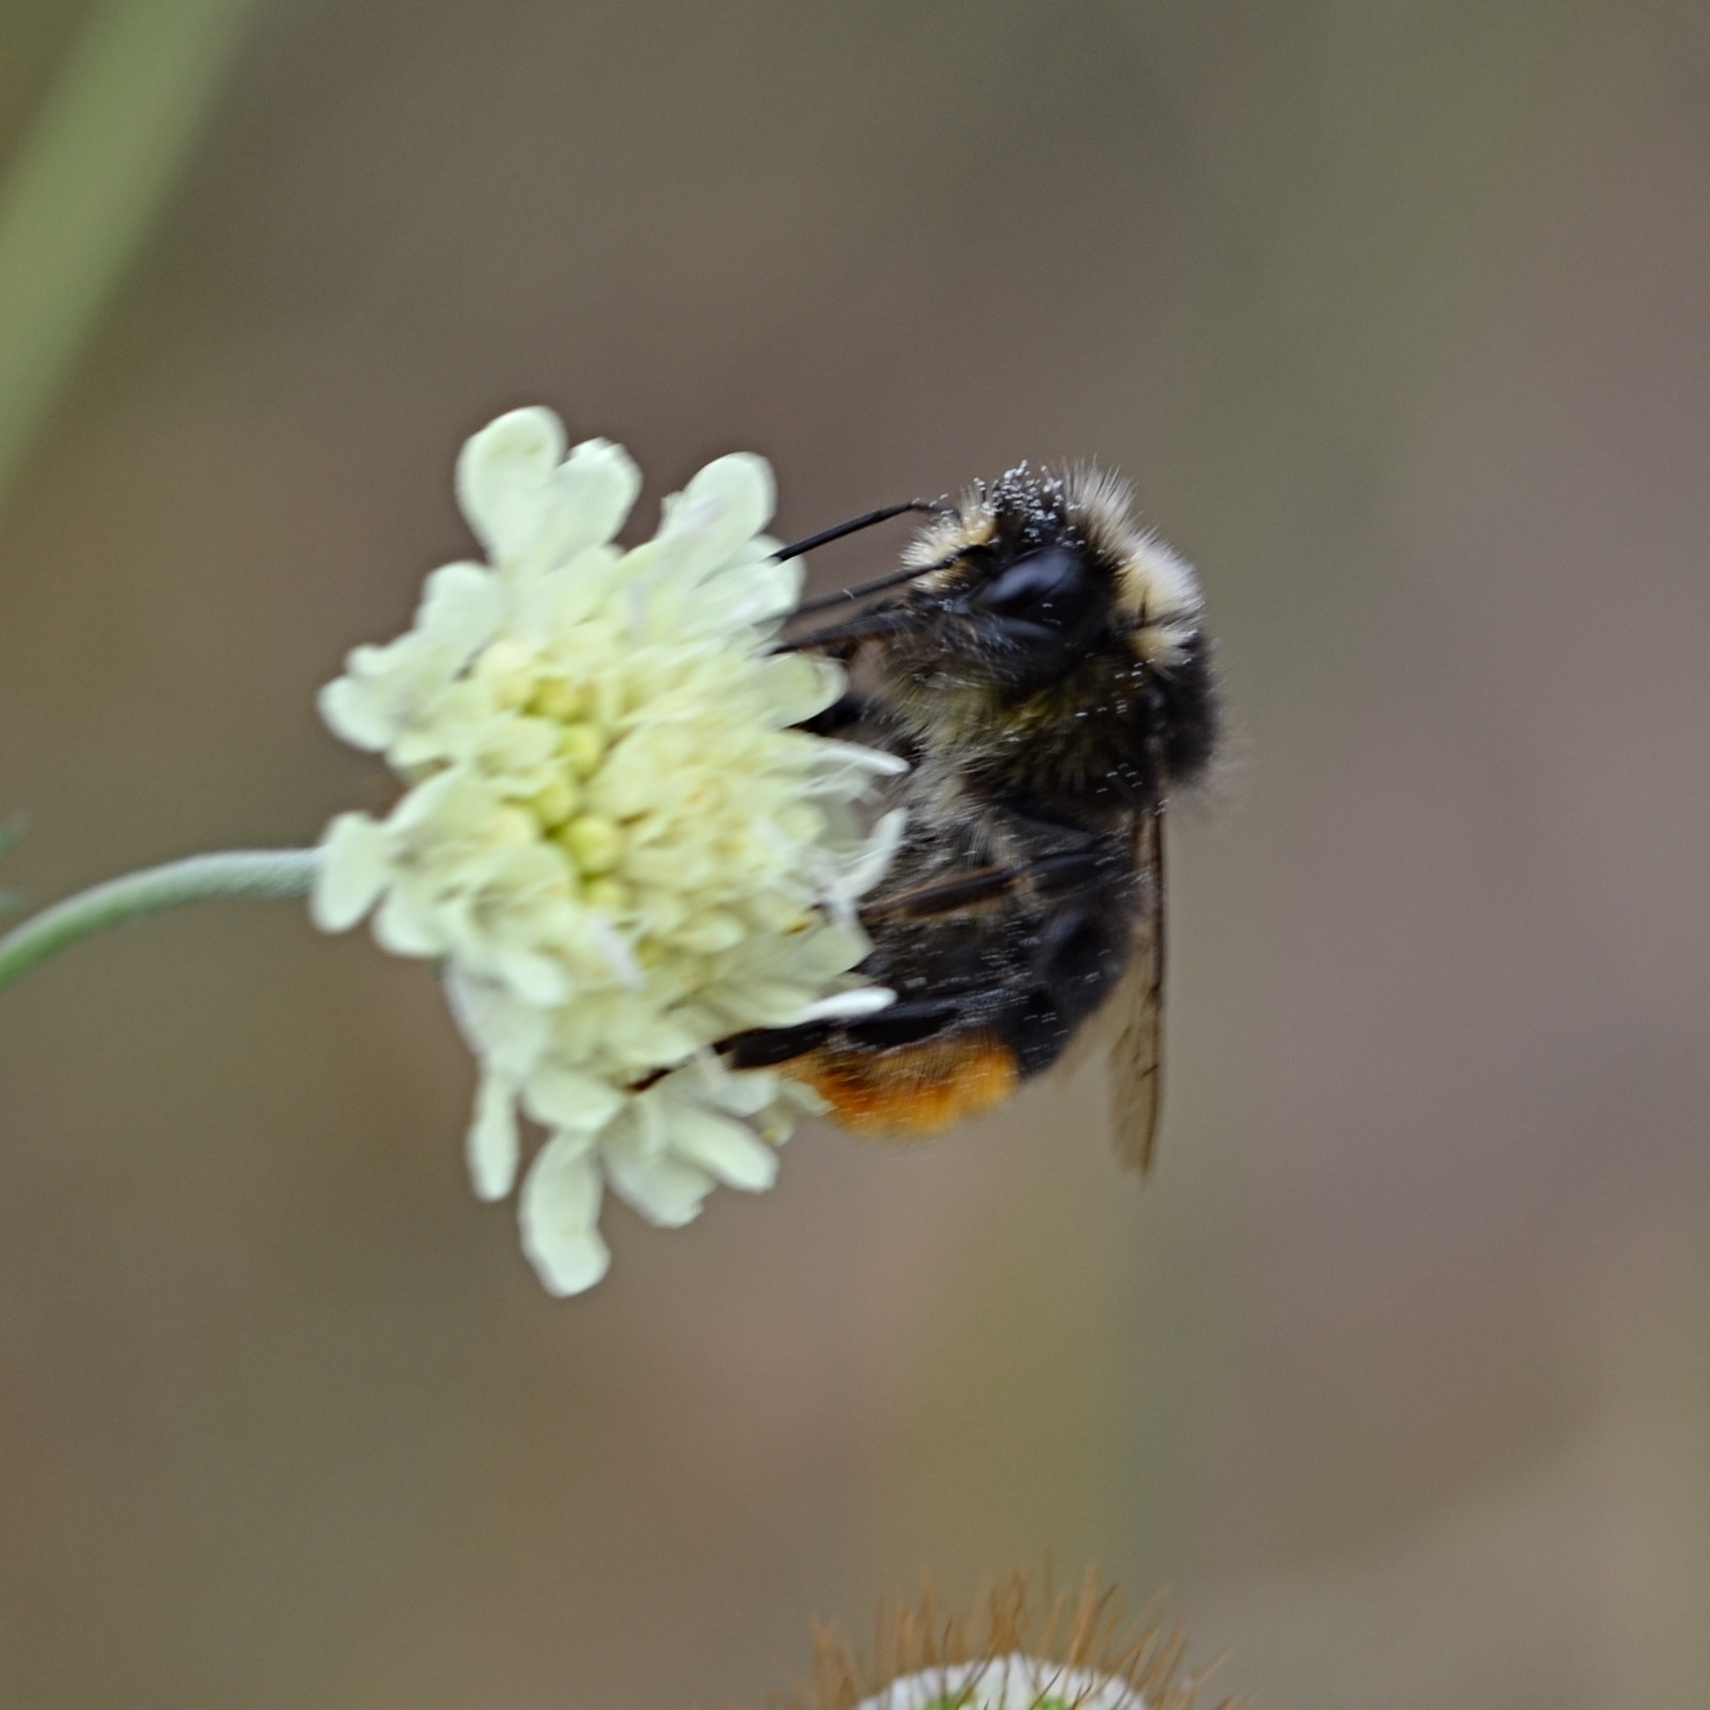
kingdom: Animalia
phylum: Arthropoda
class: Insecta
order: Hymenoptera
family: Apidae
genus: Bombus
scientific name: Bombus lapidarius
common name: Large red-tailed humble-bee
